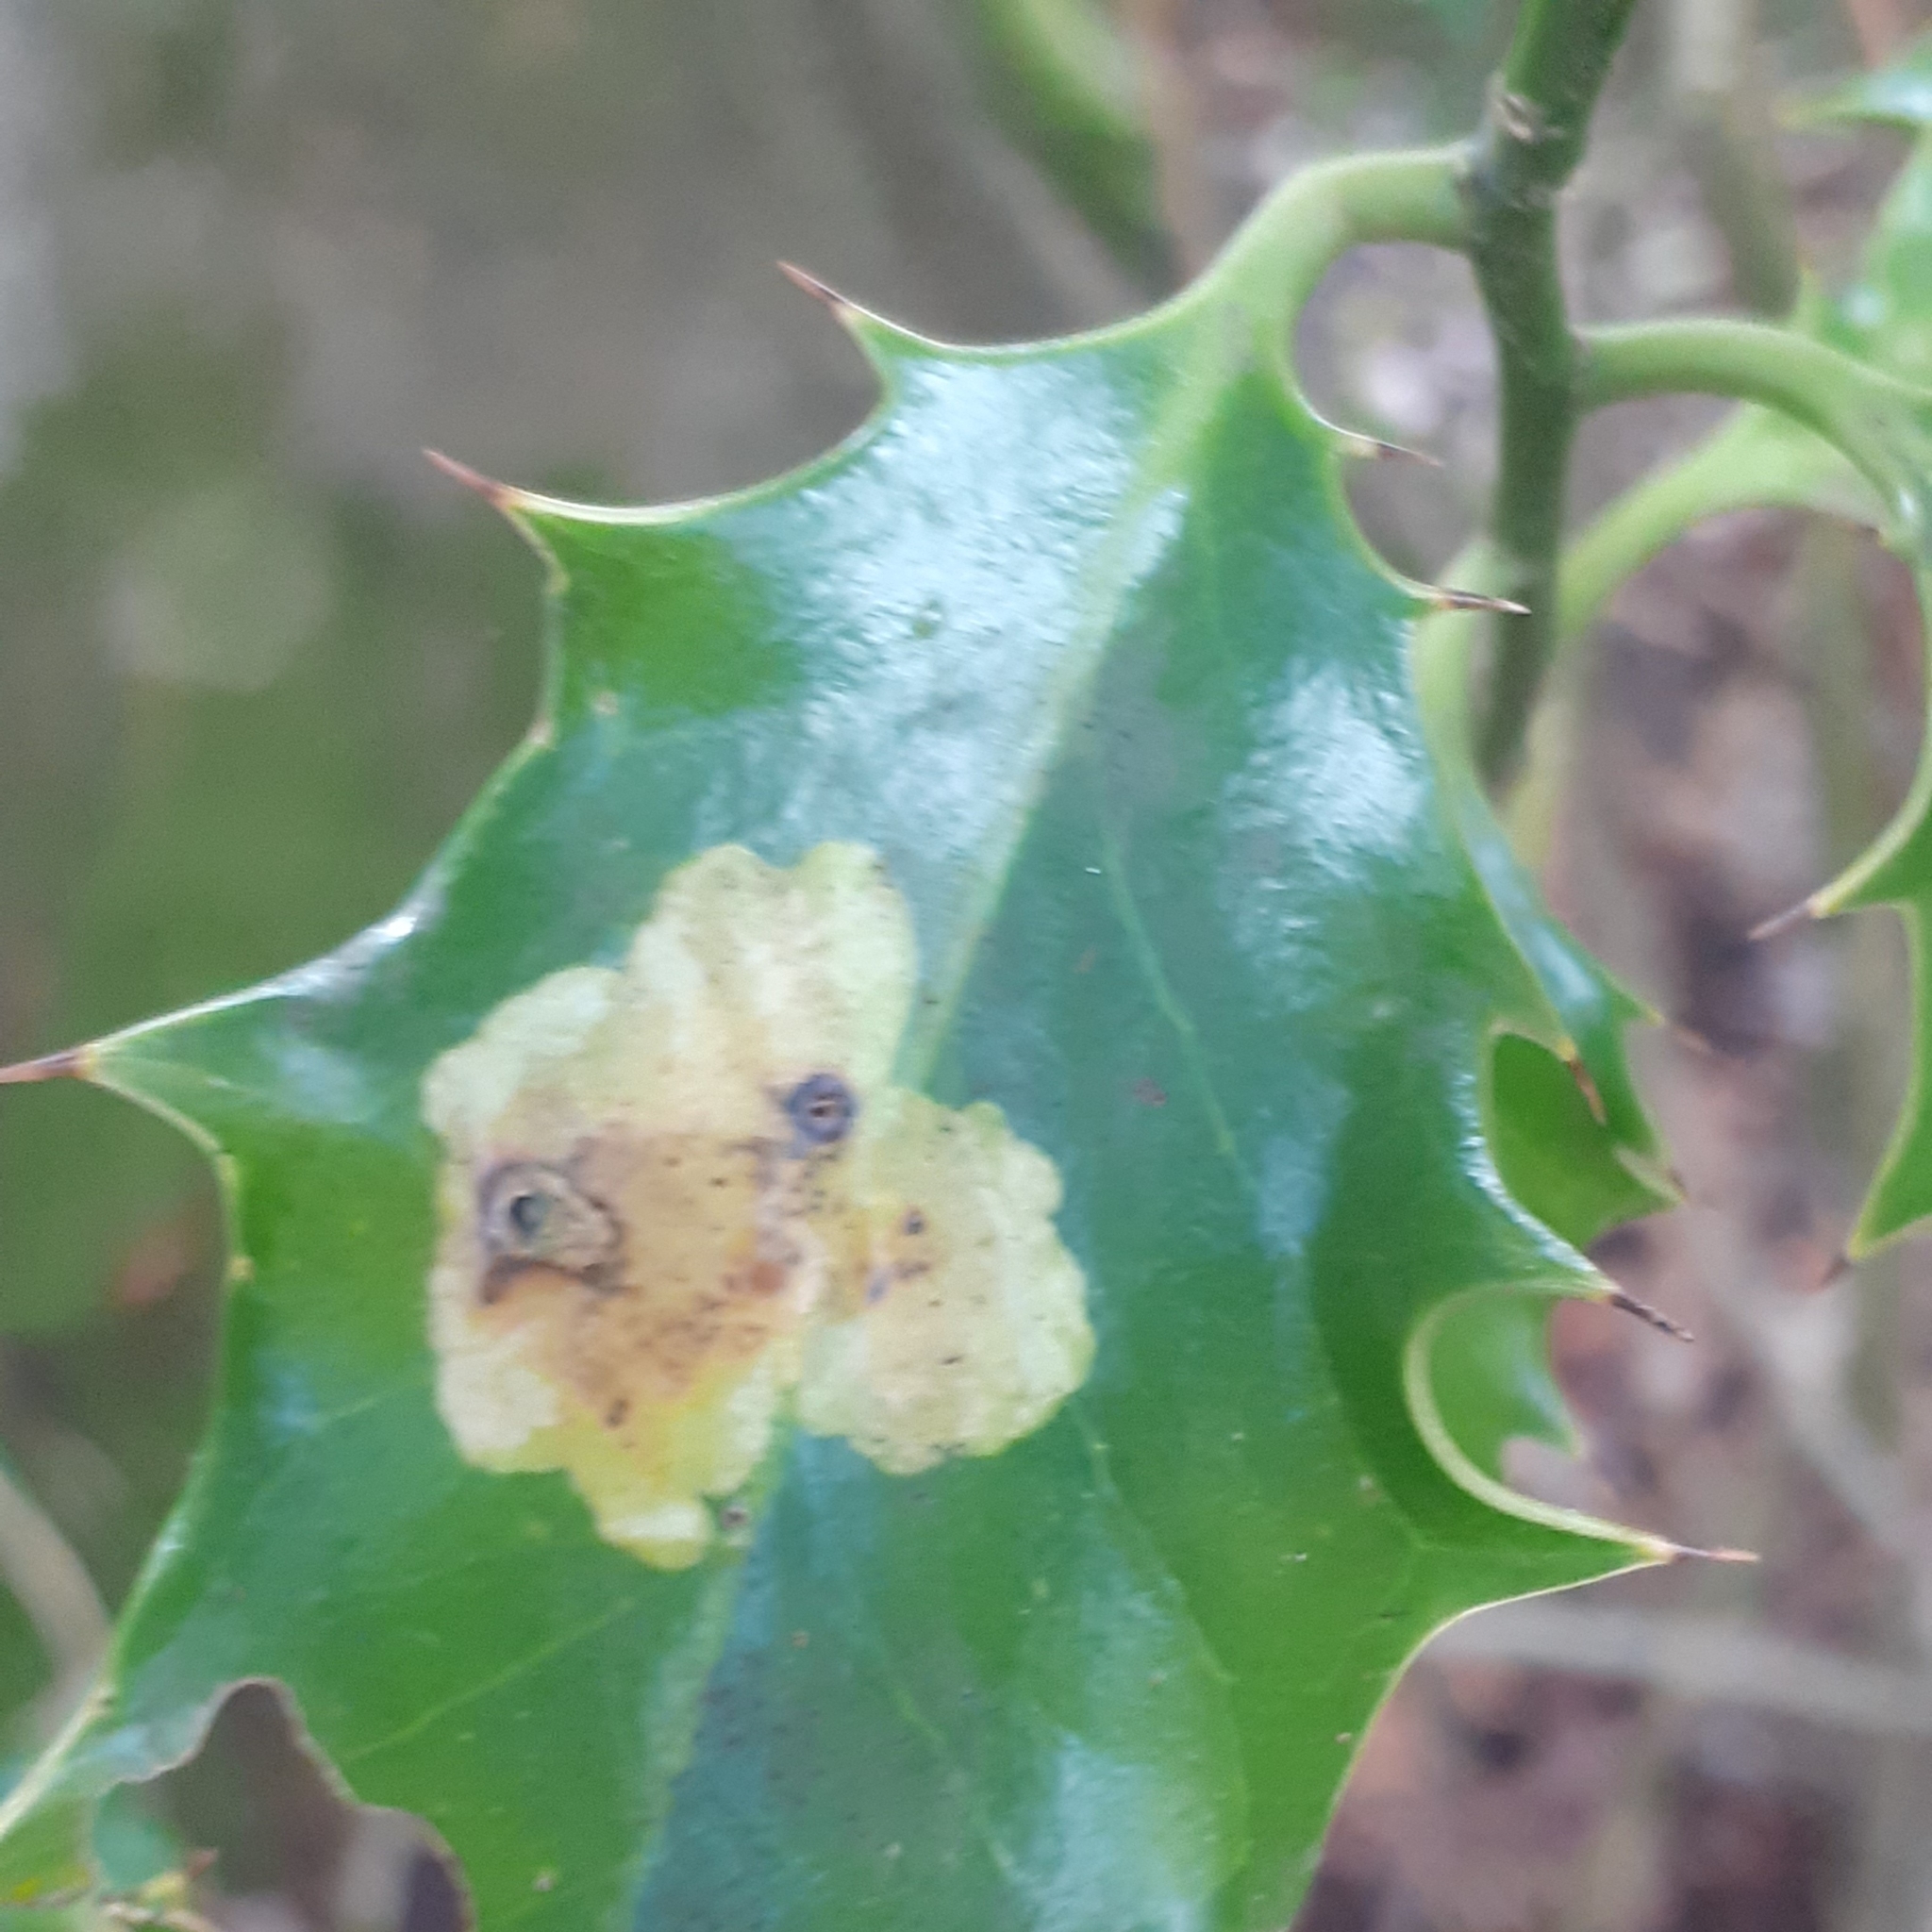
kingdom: Animalia
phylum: Arthropoda
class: Insecta
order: Diptera
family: Agromyzidae
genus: Phytomyza
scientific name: Phytomyza ilicis
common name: Holly leafminer
